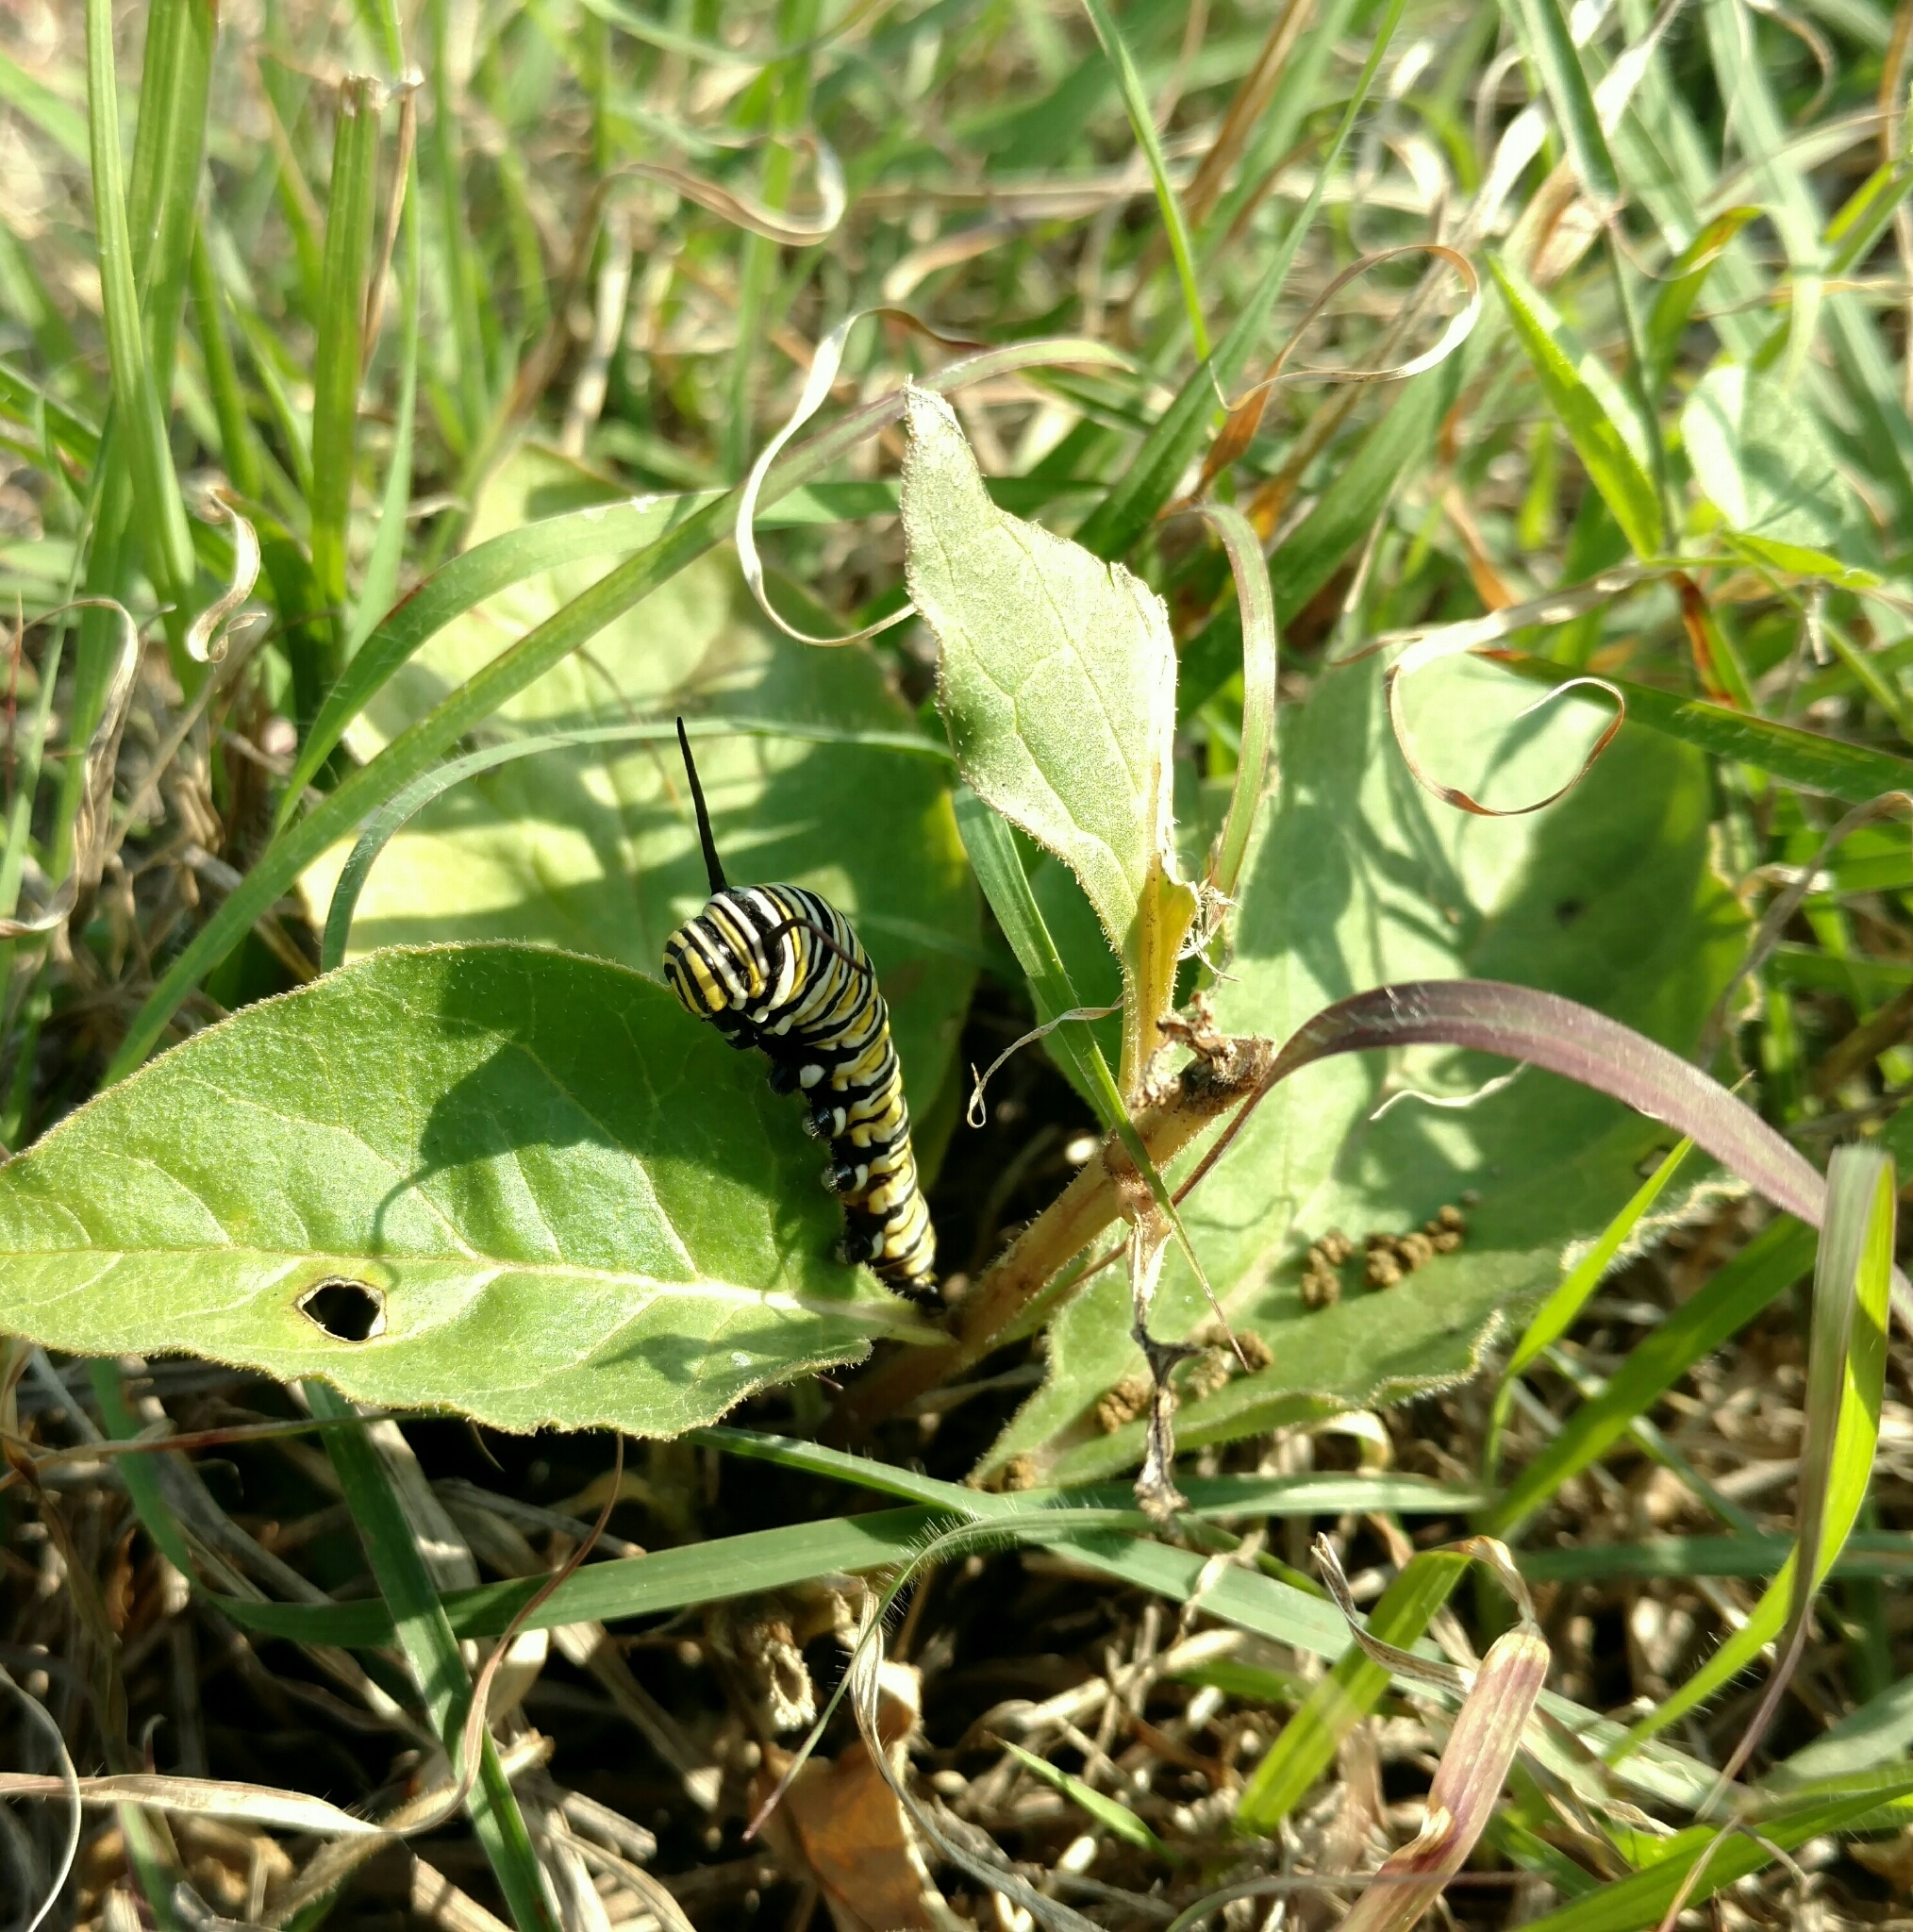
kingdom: Animalia
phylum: Arthropoda
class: Insecta
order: Lepidoptera
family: Nymphalidae
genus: Danaus
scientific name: Danaus plexippus
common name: Monarch
